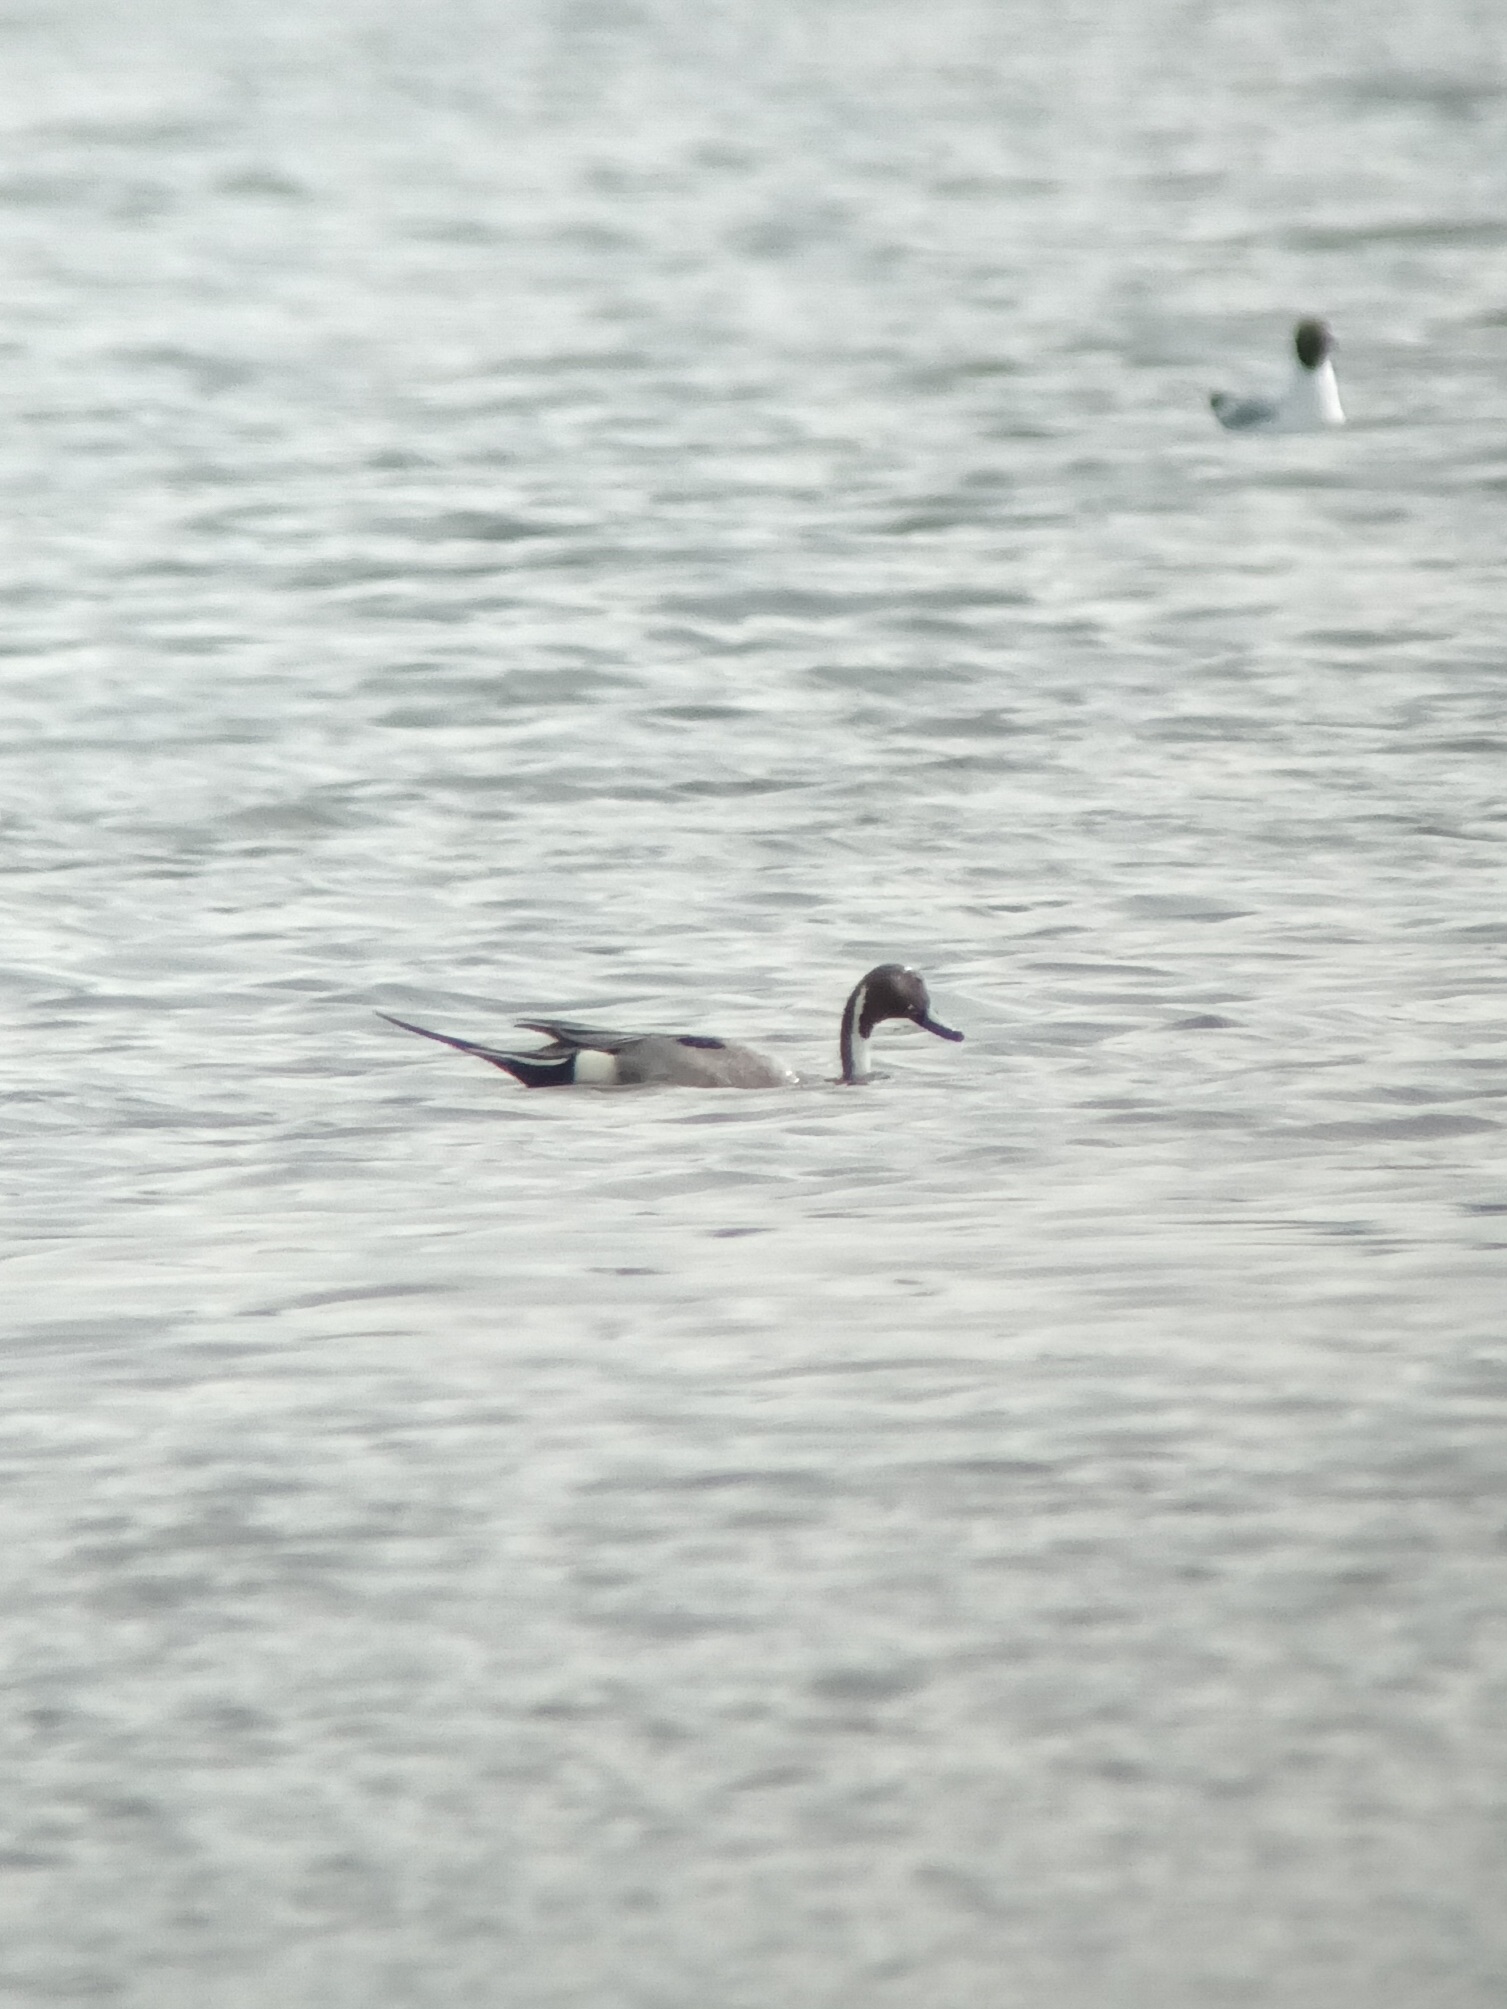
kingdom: Animalia
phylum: Chordata
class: Aves
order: Anseriformes
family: Anatidae
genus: Anas
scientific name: Anas acuta
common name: Northern pintail
